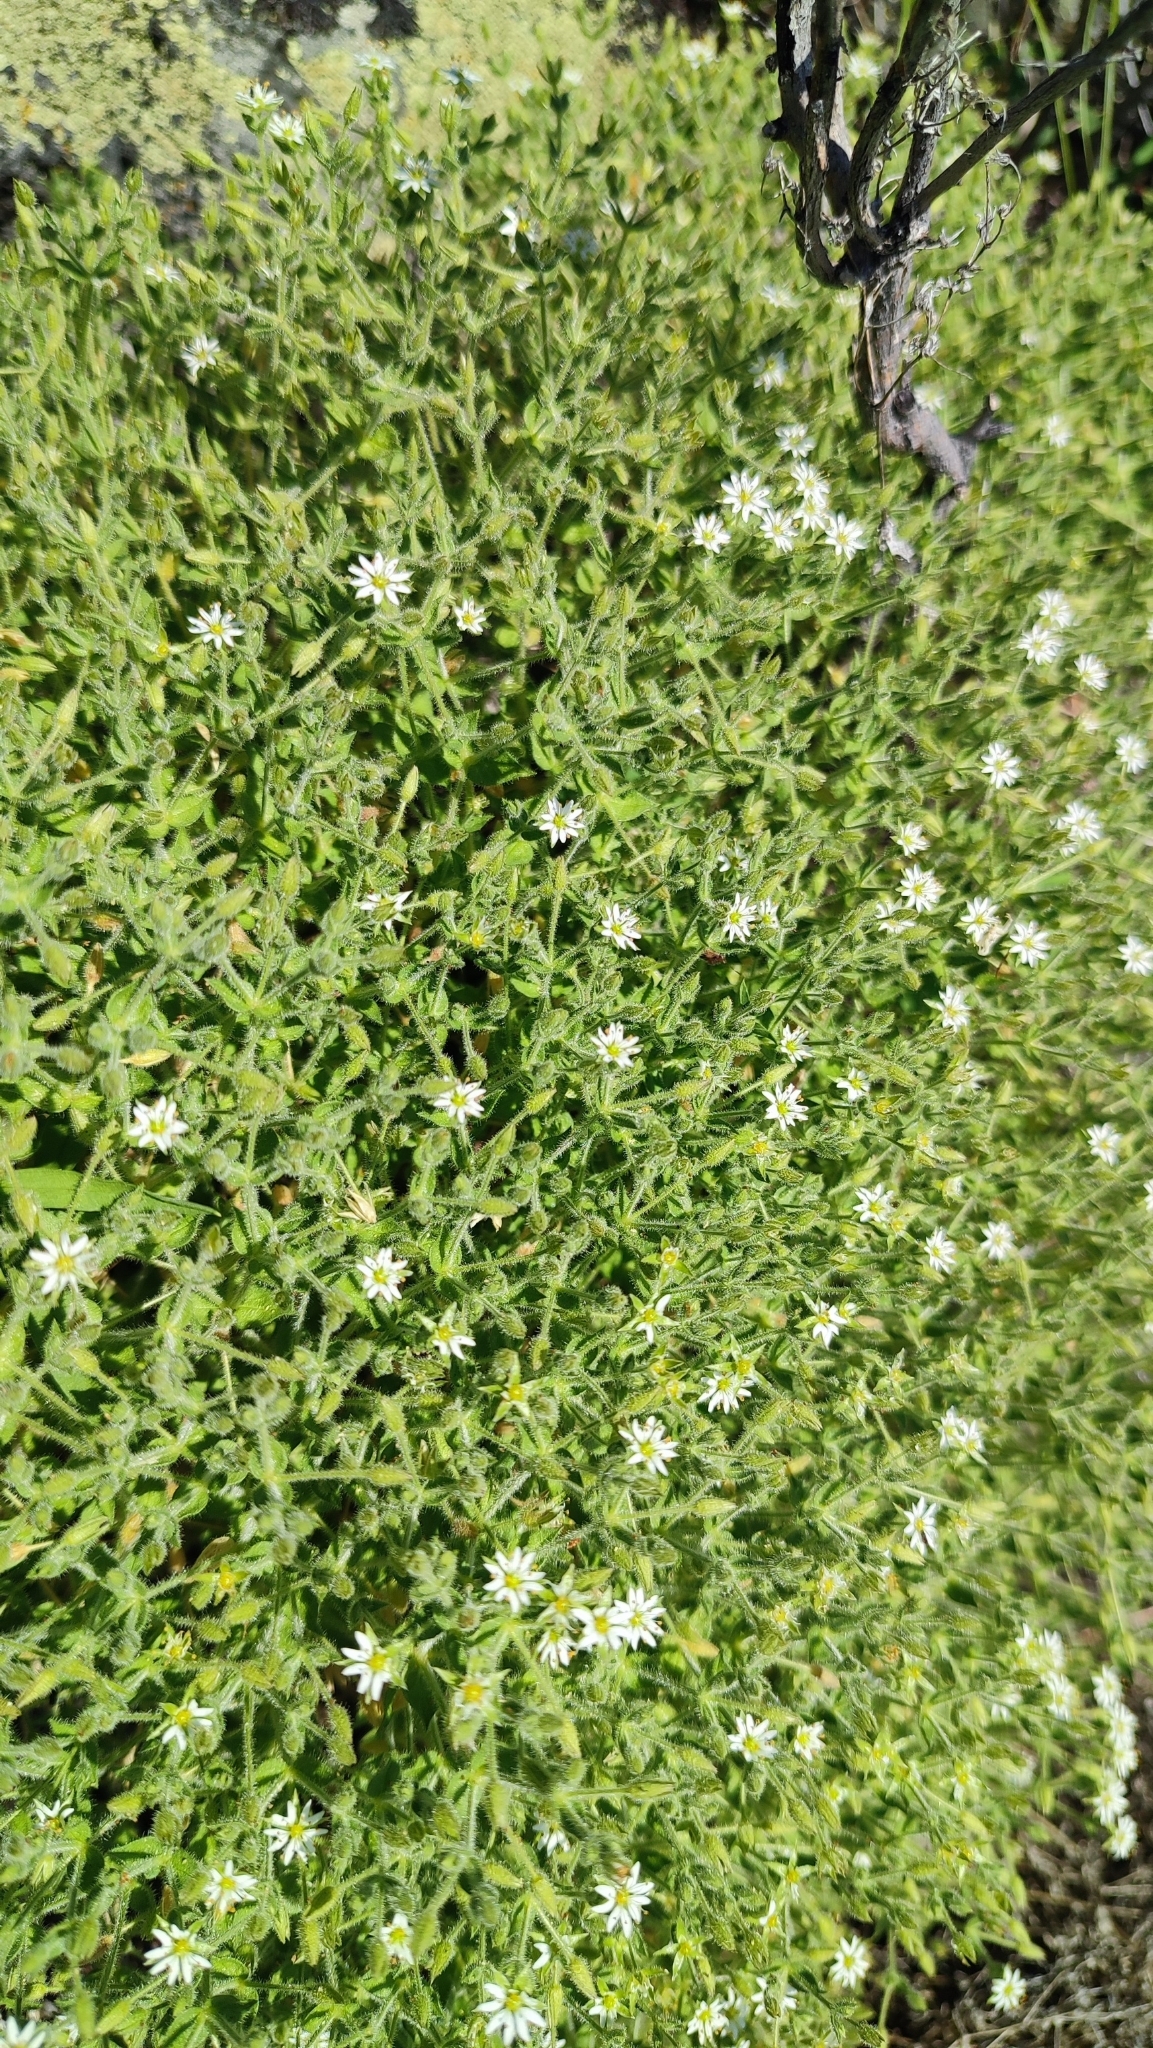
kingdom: Plantae
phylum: Tracheophyta
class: Magnoliopsida
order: Caryophyllales
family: Caryophyllaceae
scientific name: Caryophyllaceae
